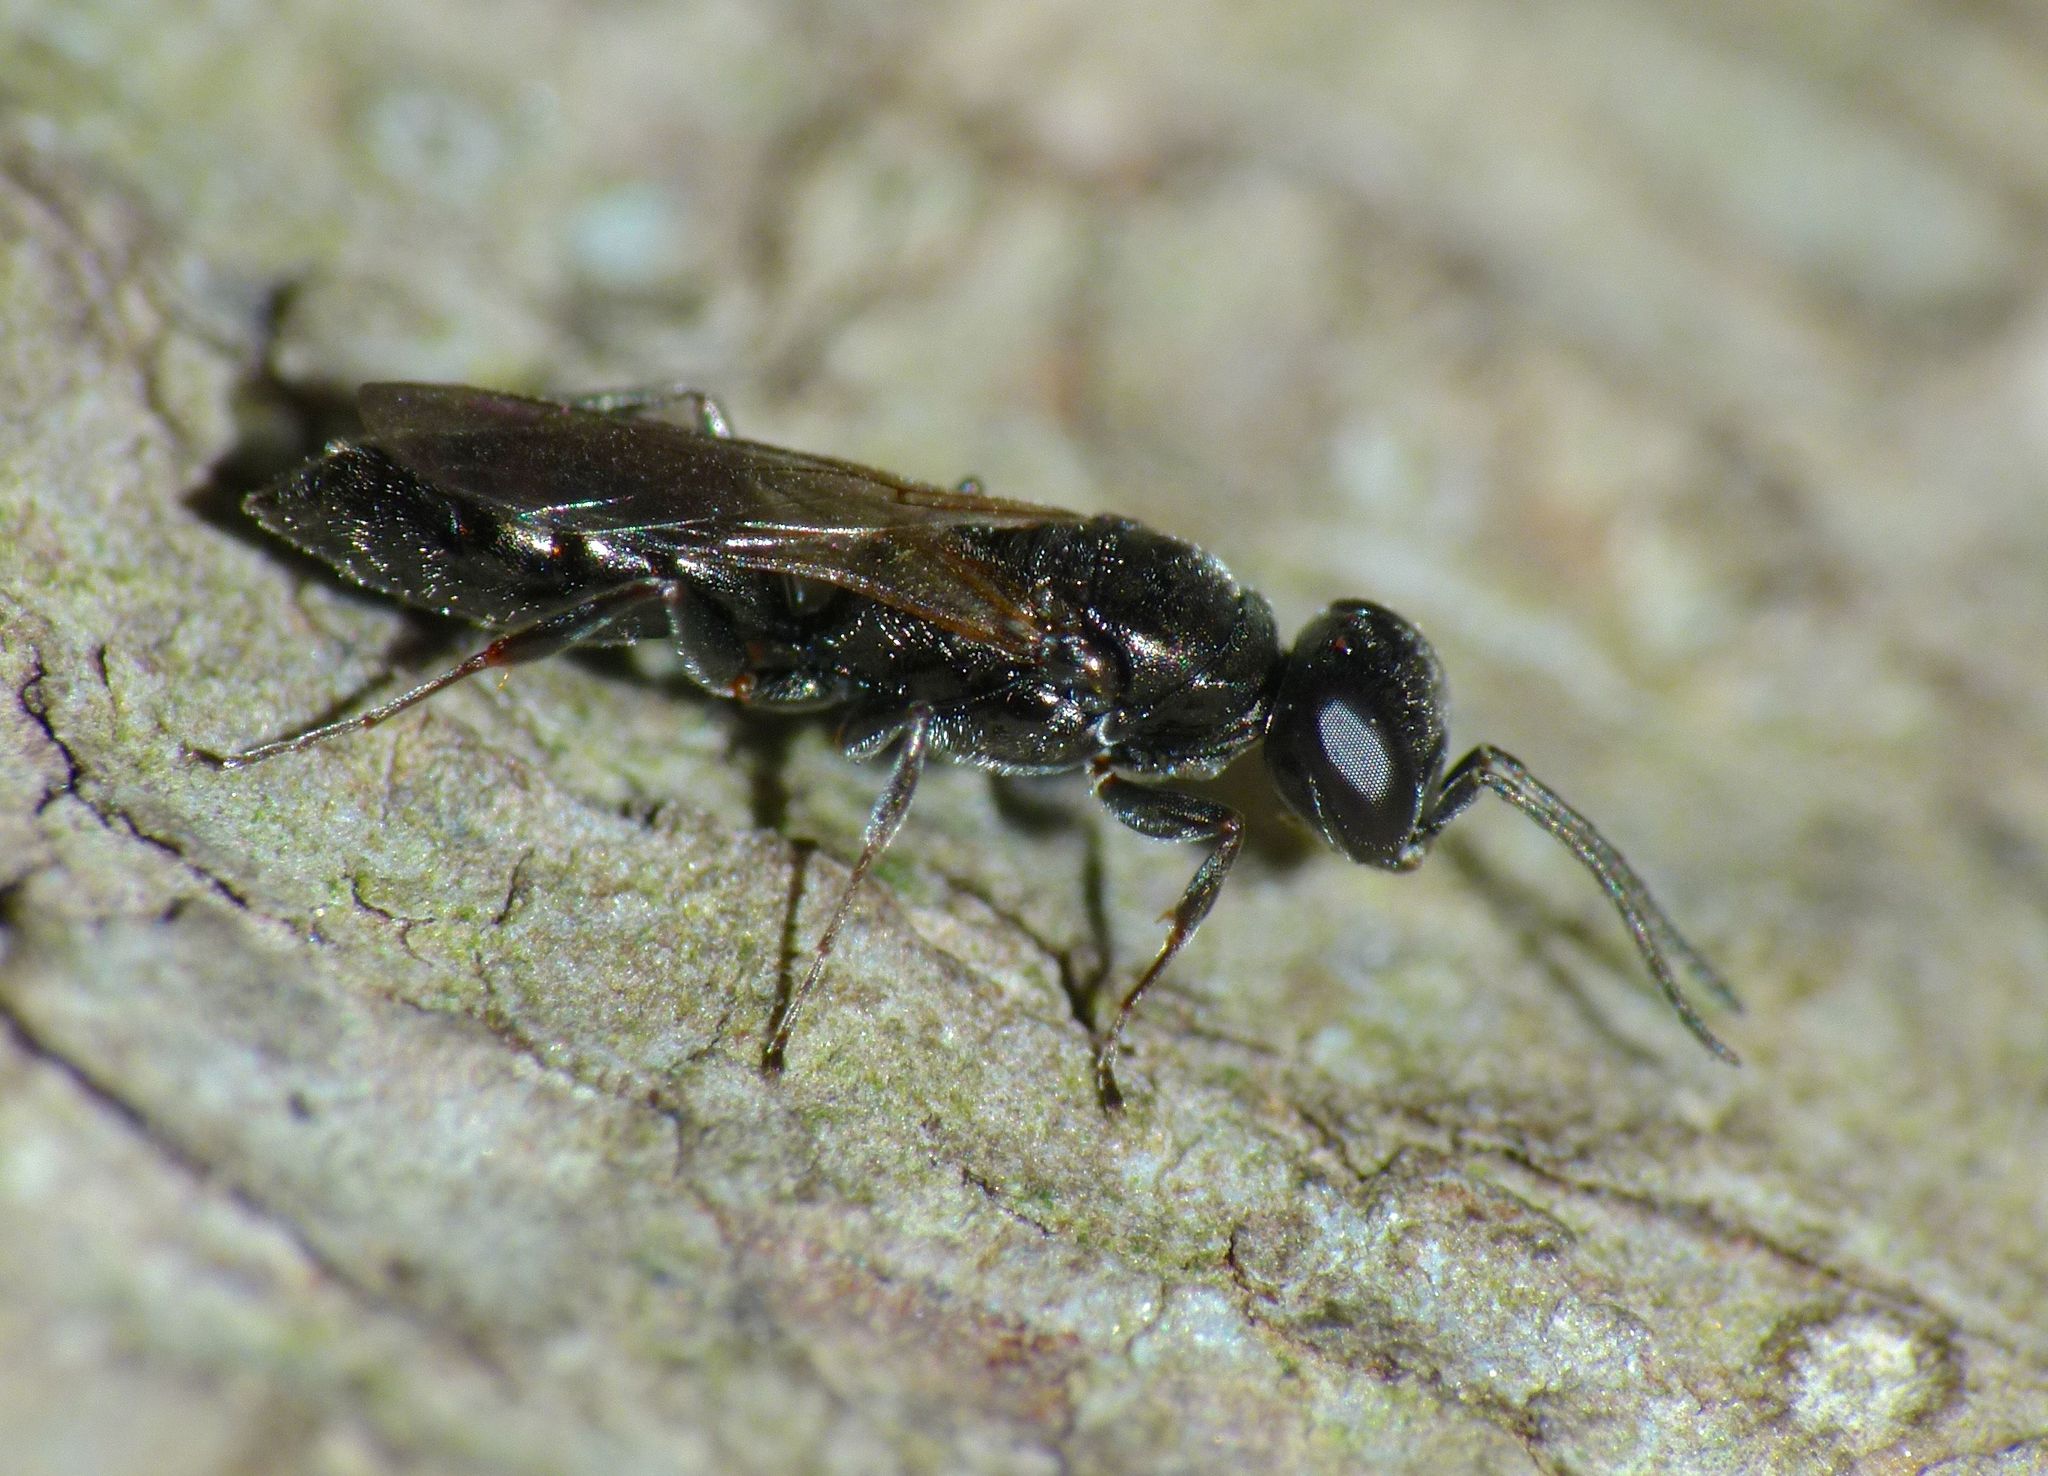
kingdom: Animalia
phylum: Arthropoda
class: Insecta
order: Hymenoptera
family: Crabronidae
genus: Nitela
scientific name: Nitela
